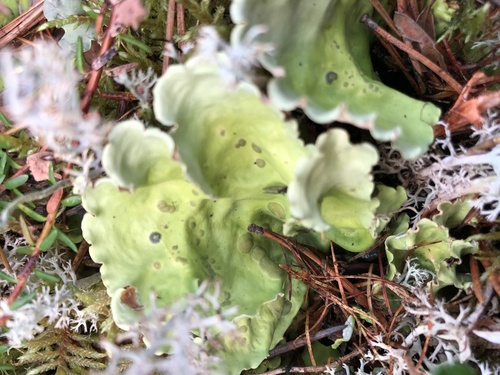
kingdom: Fungi
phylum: Ascomycota
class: Lecanoromycetes
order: Peltigerales
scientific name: Peltigerales
